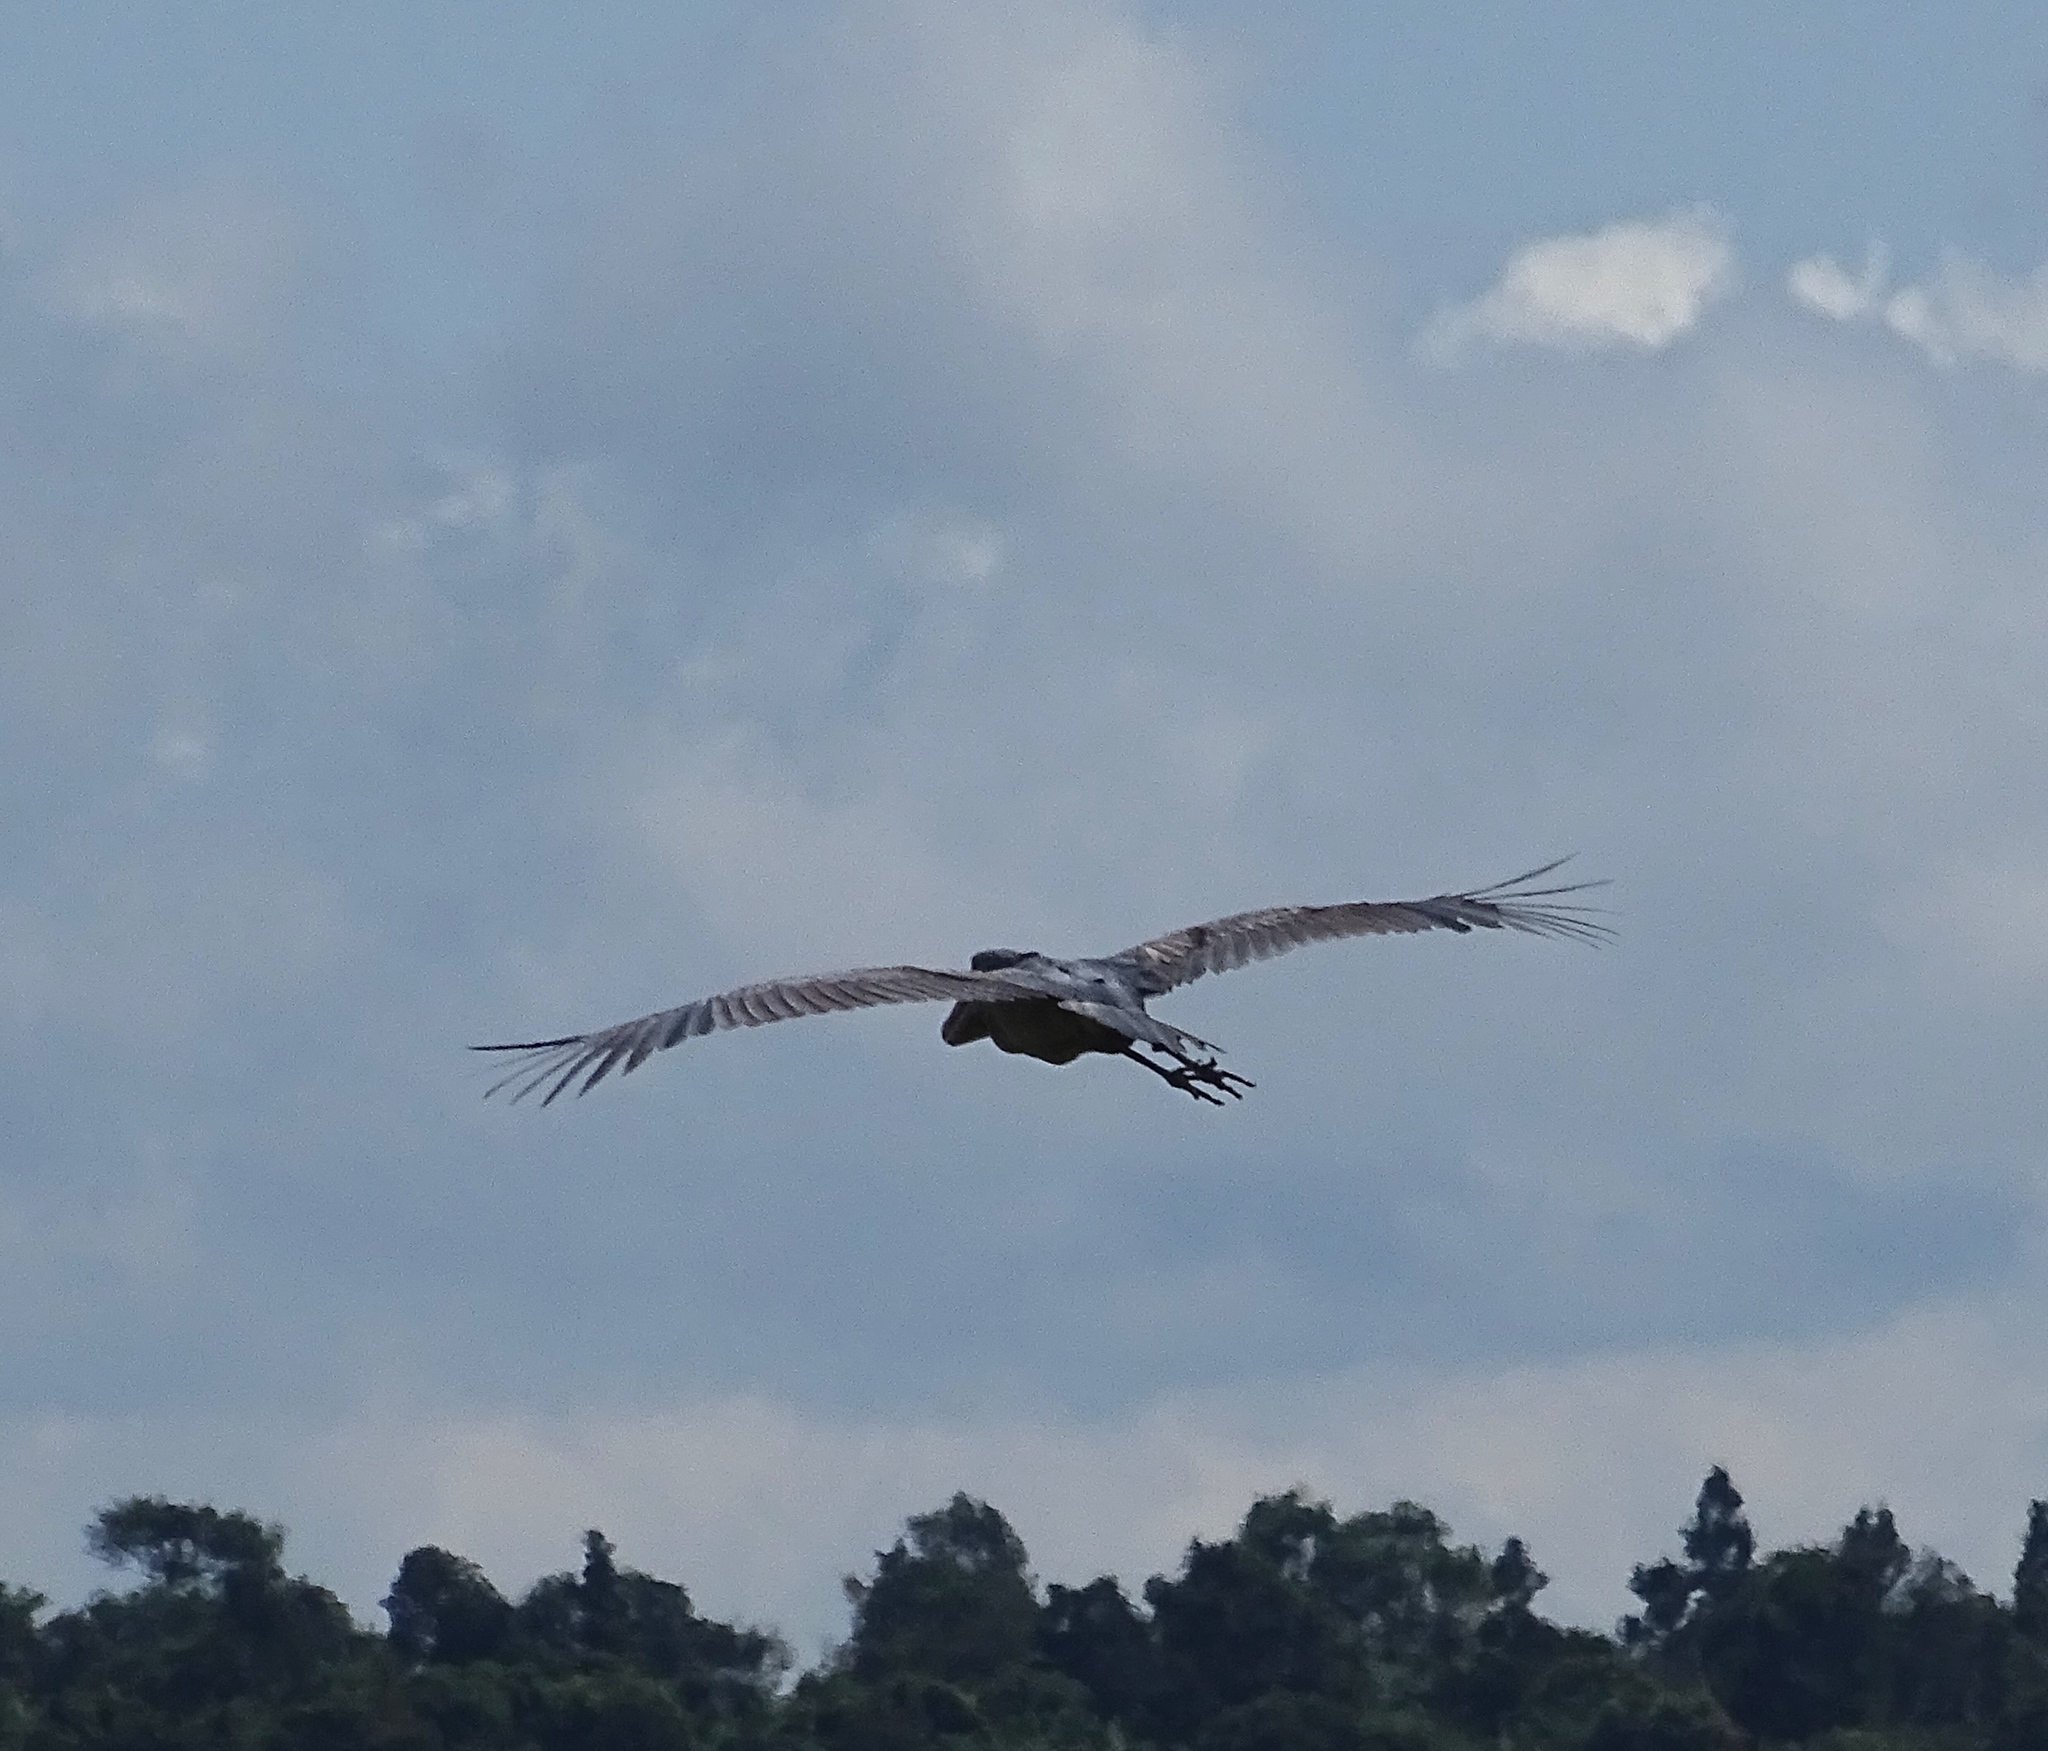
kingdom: Animalia
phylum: Chordata
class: Aves
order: Pelecaniformes
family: Balaenicipitidae
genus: Balaeniceps
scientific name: Balaeniceps rex
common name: Shoebill
